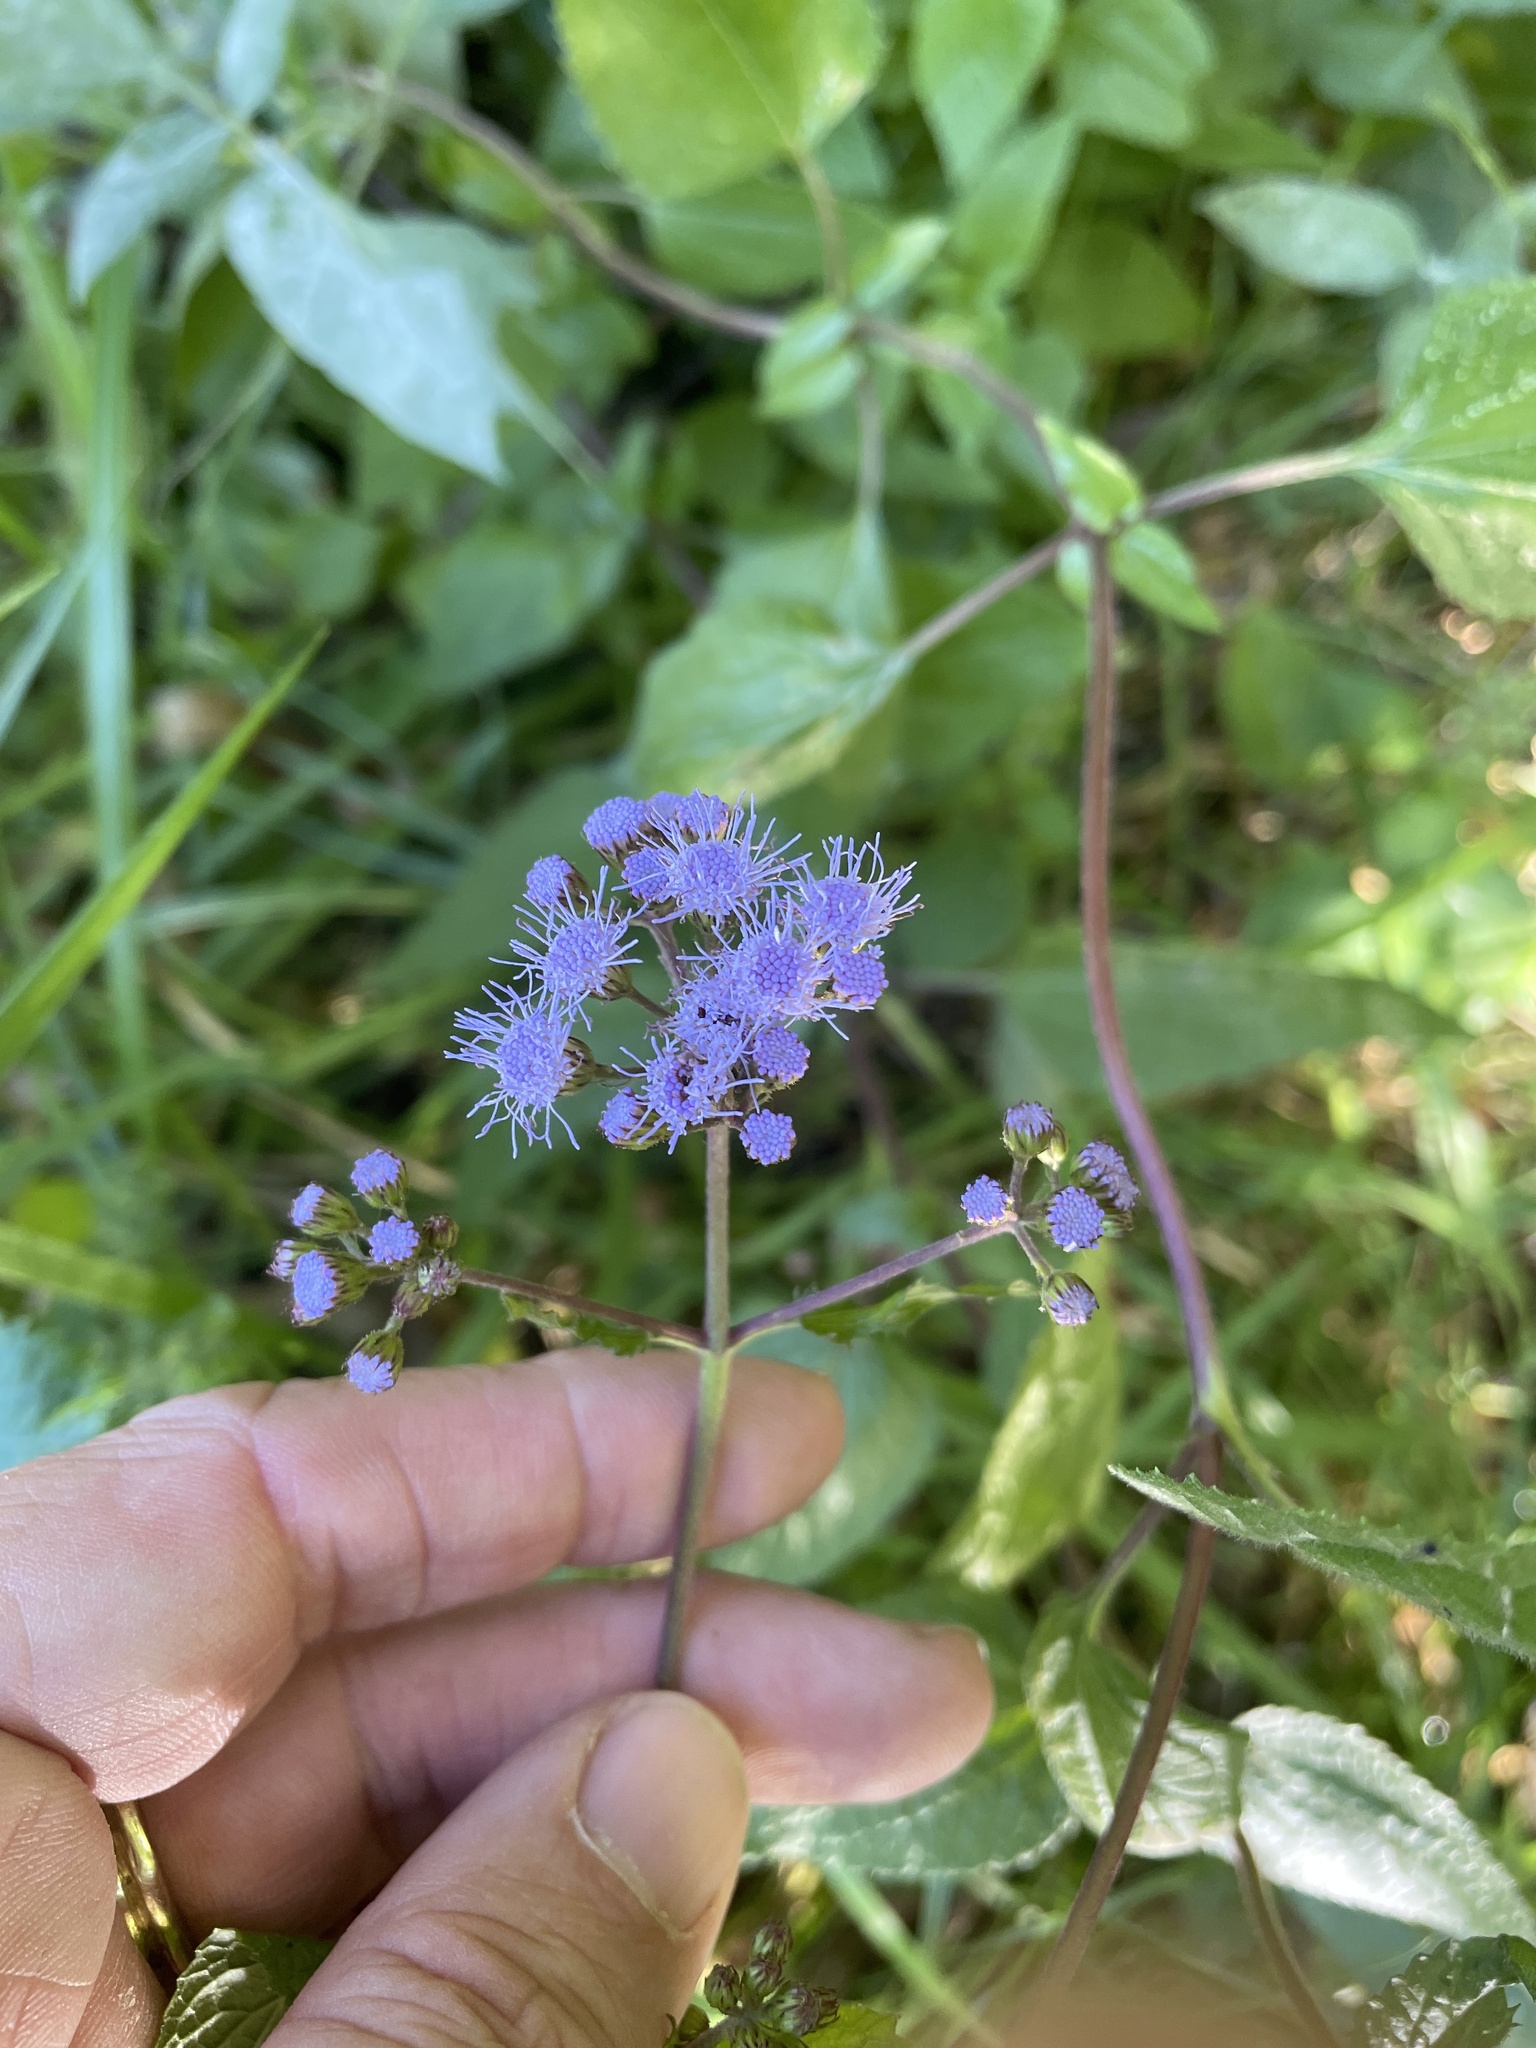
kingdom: Plantae
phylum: Tracheophyta
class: Magnoliopsida
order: Asterales
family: Asteraceae
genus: Conoclinium
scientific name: Conoclinium coelestinum
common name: Blue mistflower
